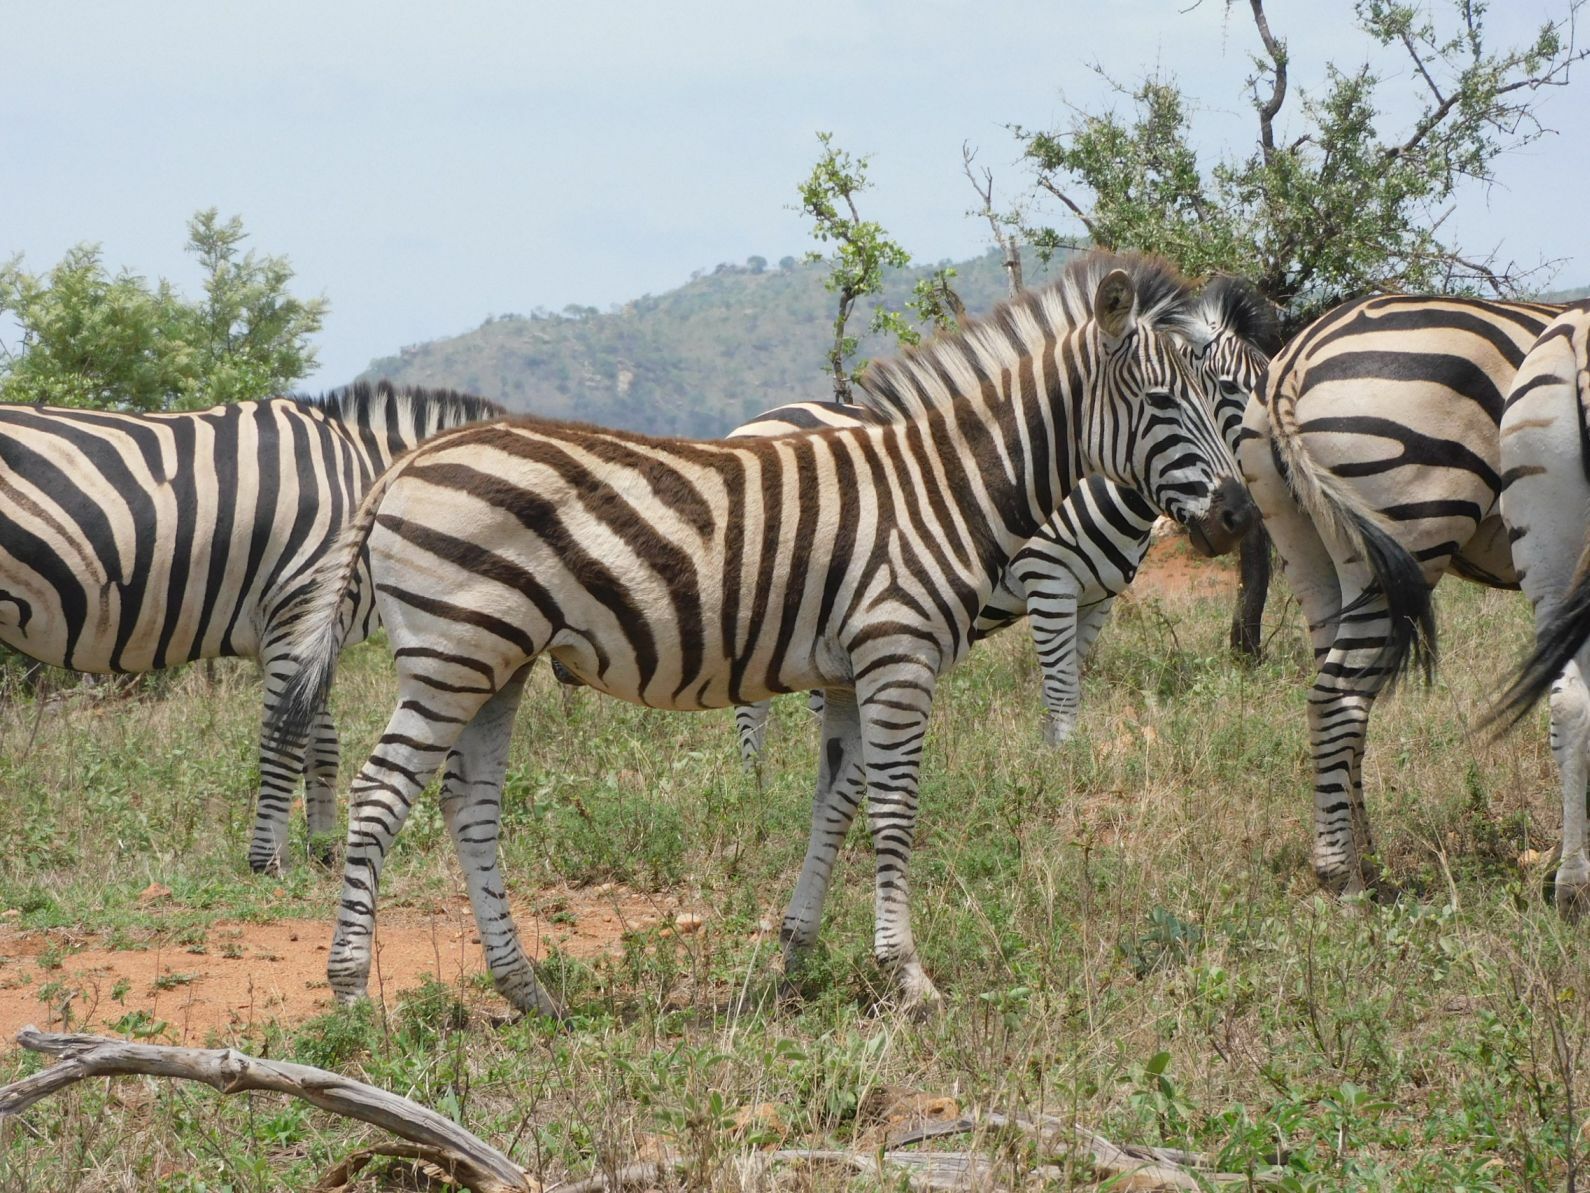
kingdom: Animalia
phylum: Chordata
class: Mammalia
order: Perissodactyla
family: Equidae
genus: Equus
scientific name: Equus quagga
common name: Plains zebra
